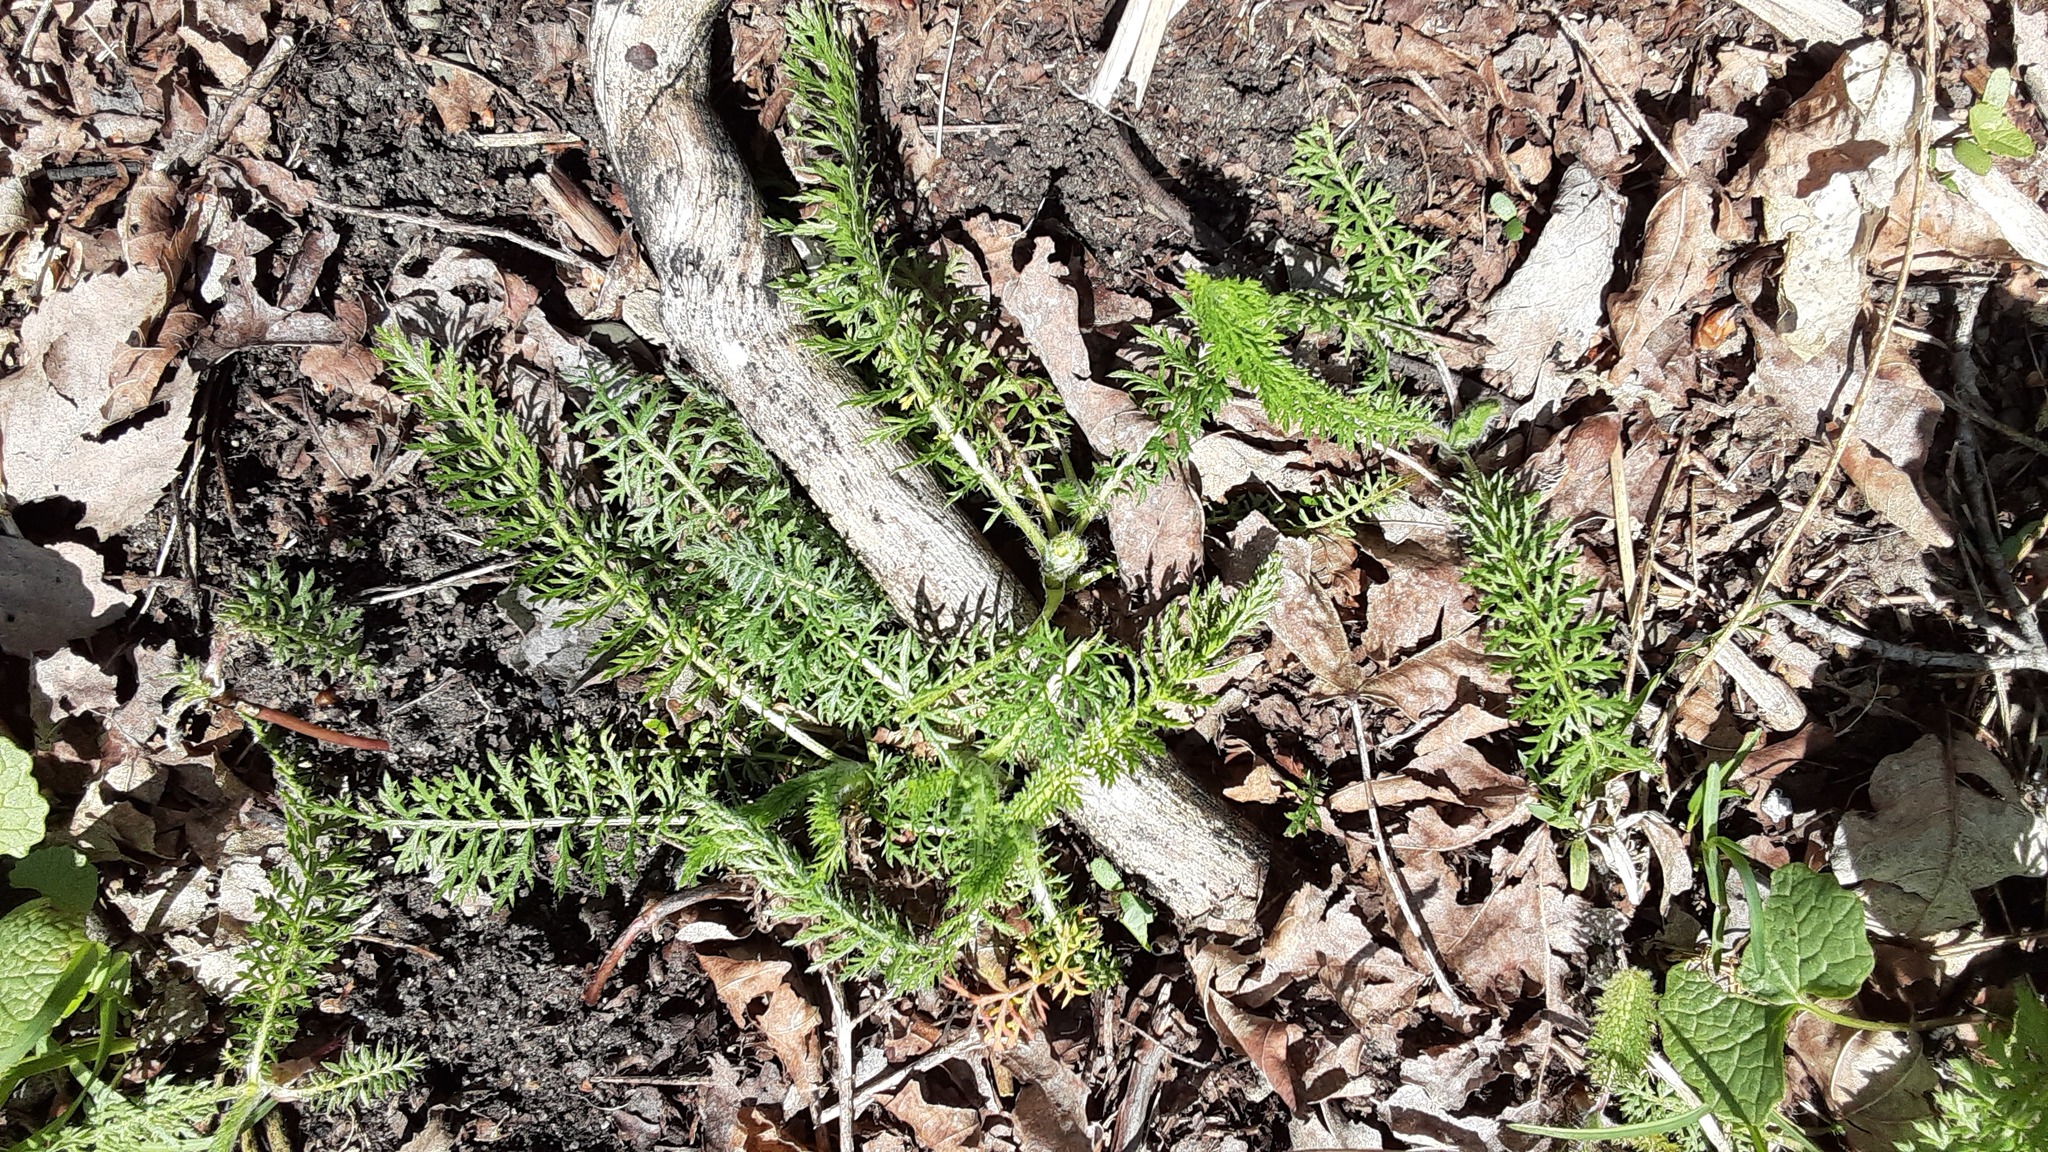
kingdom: Plantae
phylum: Tracheophyta
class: Magnoliopsida
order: Asterales
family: Asteraceae
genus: Achillea
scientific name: Achillea millefolium
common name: Yarrow
